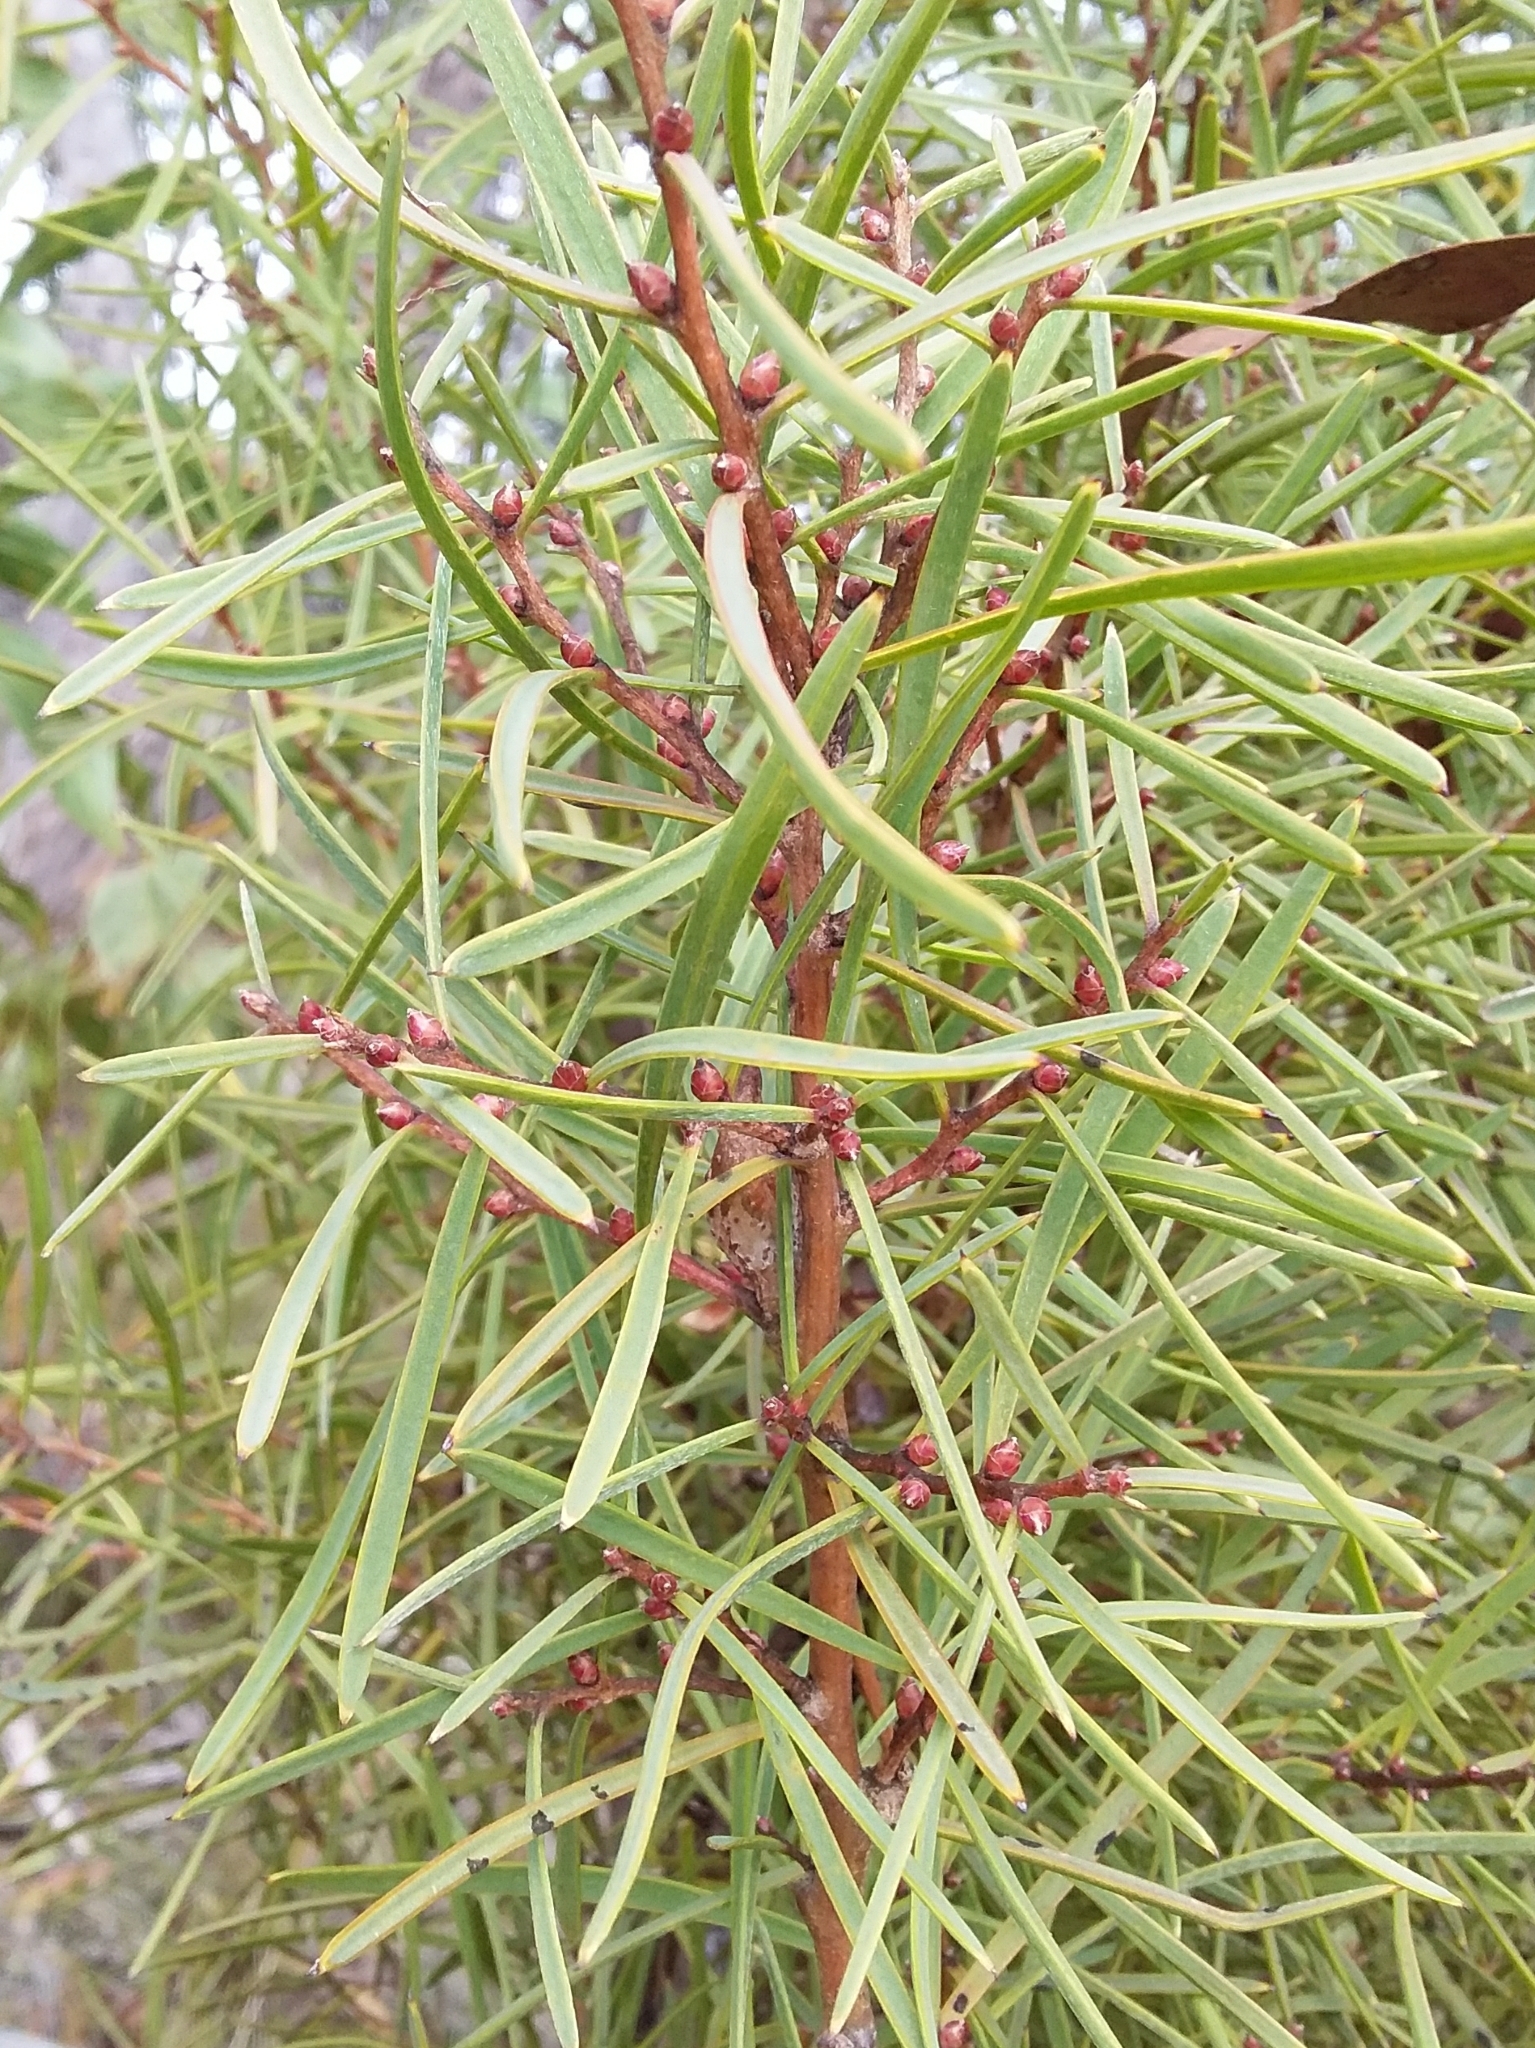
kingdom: Plantae
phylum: Tracheophyta
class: Magnoliopsida
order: Proteales
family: Proteaceae
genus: Hakea
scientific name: Hakea carinata
